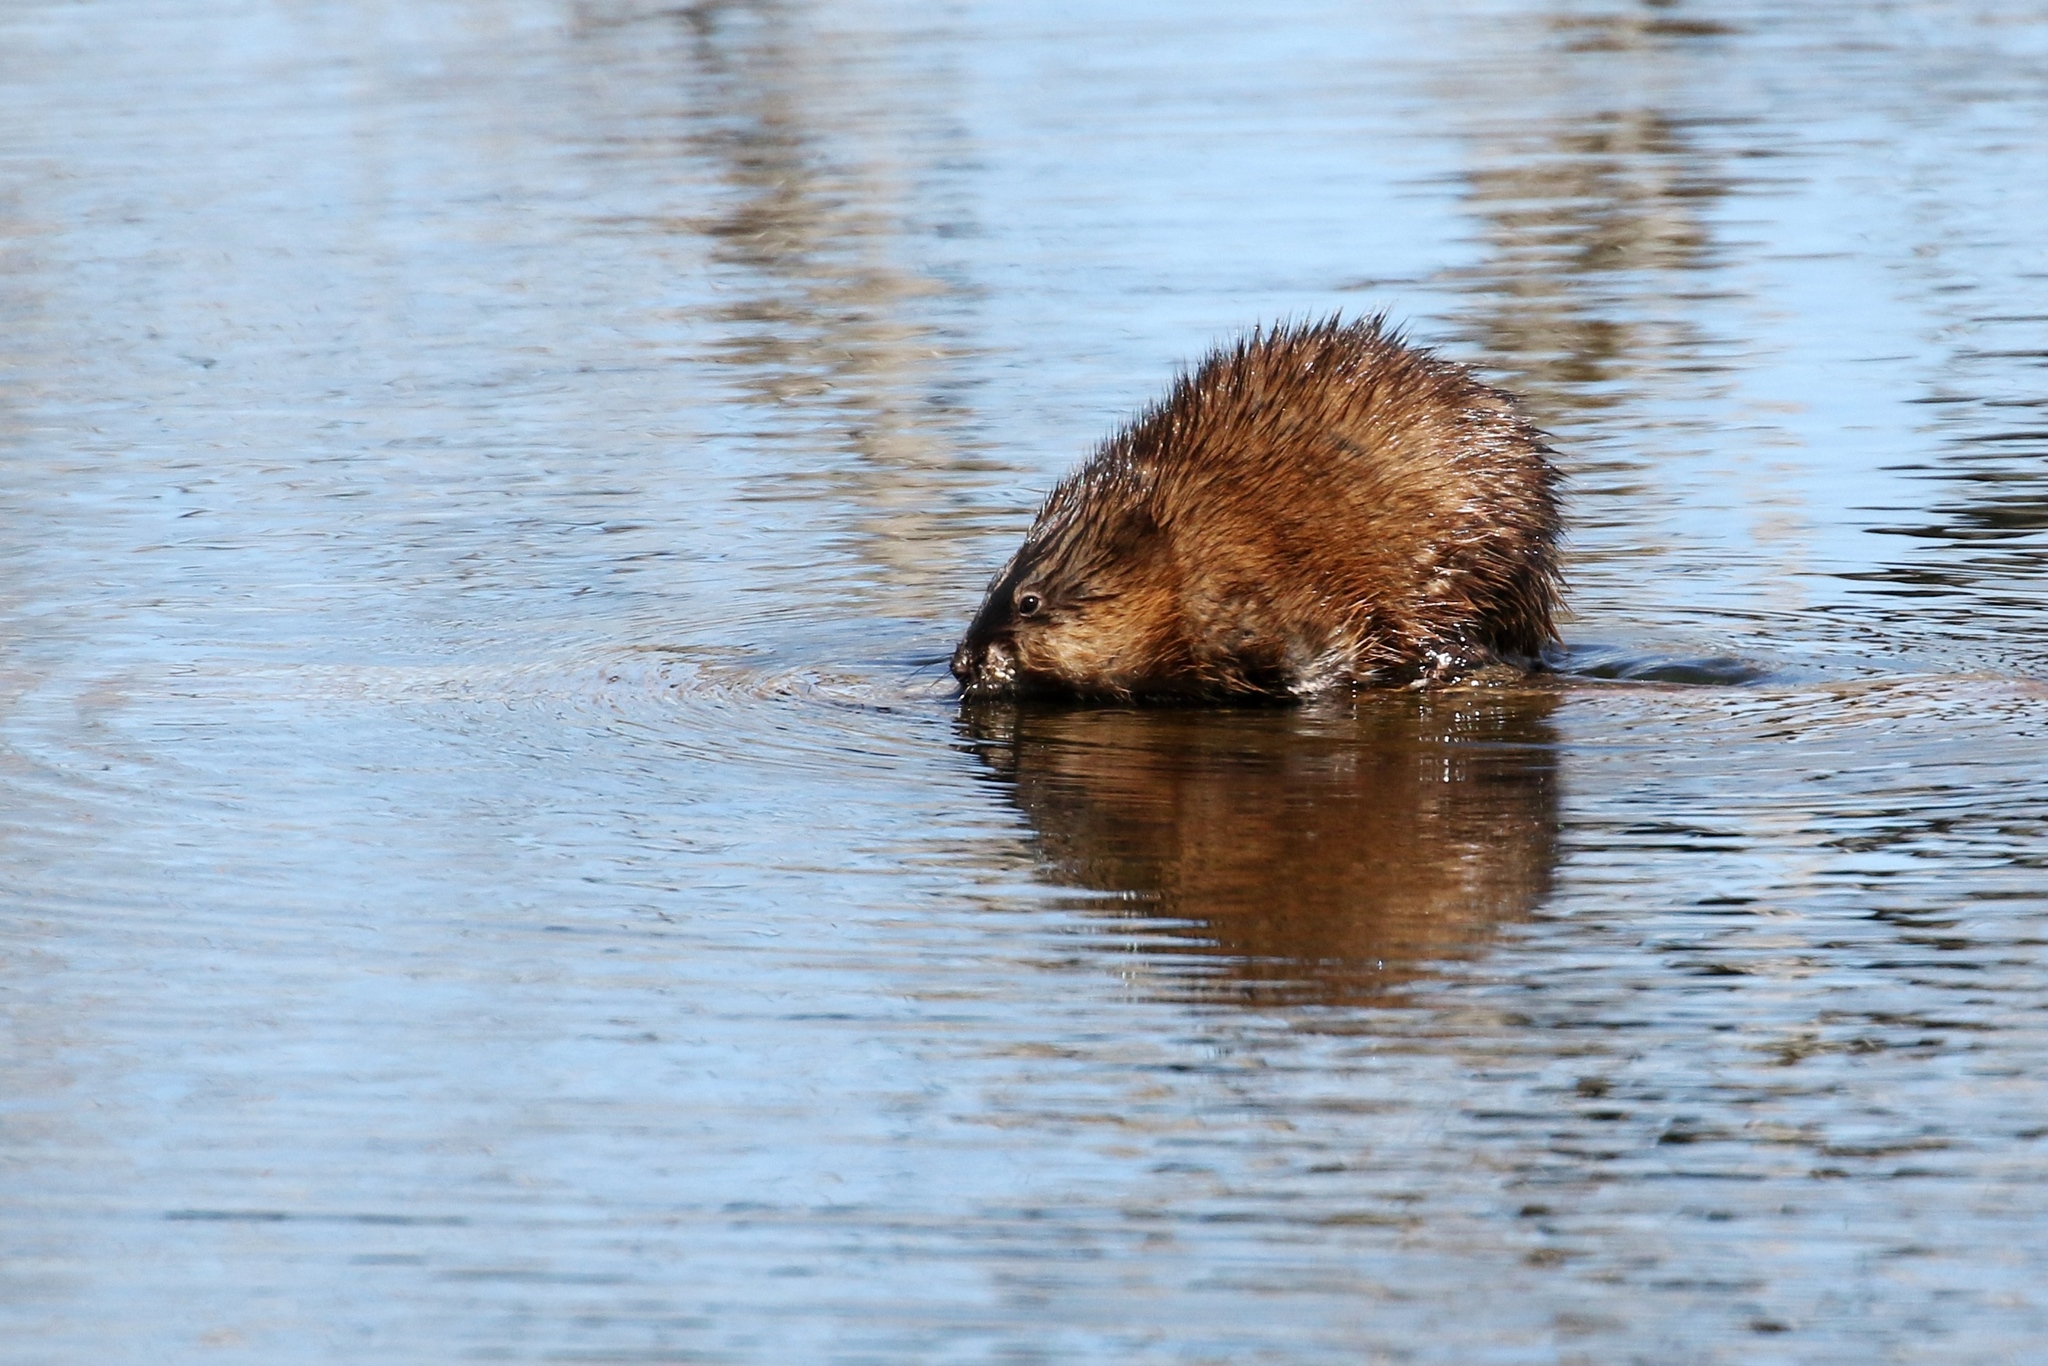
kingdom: Animalia
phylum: Chordata
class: Mammalia
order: Rodentia
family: Cricetidae
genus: Ondatra
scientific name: Ondatra zibethicus
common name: Muskrat
